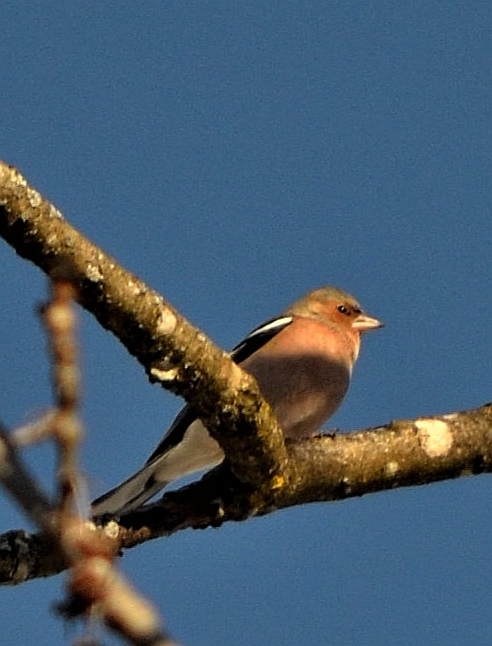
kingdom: Animalia
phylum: Chordata
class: Aves
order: Passeriformes
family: Fringillidae
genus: Fringilla
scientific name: Fringilla coelebs
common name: Common chaffinch
